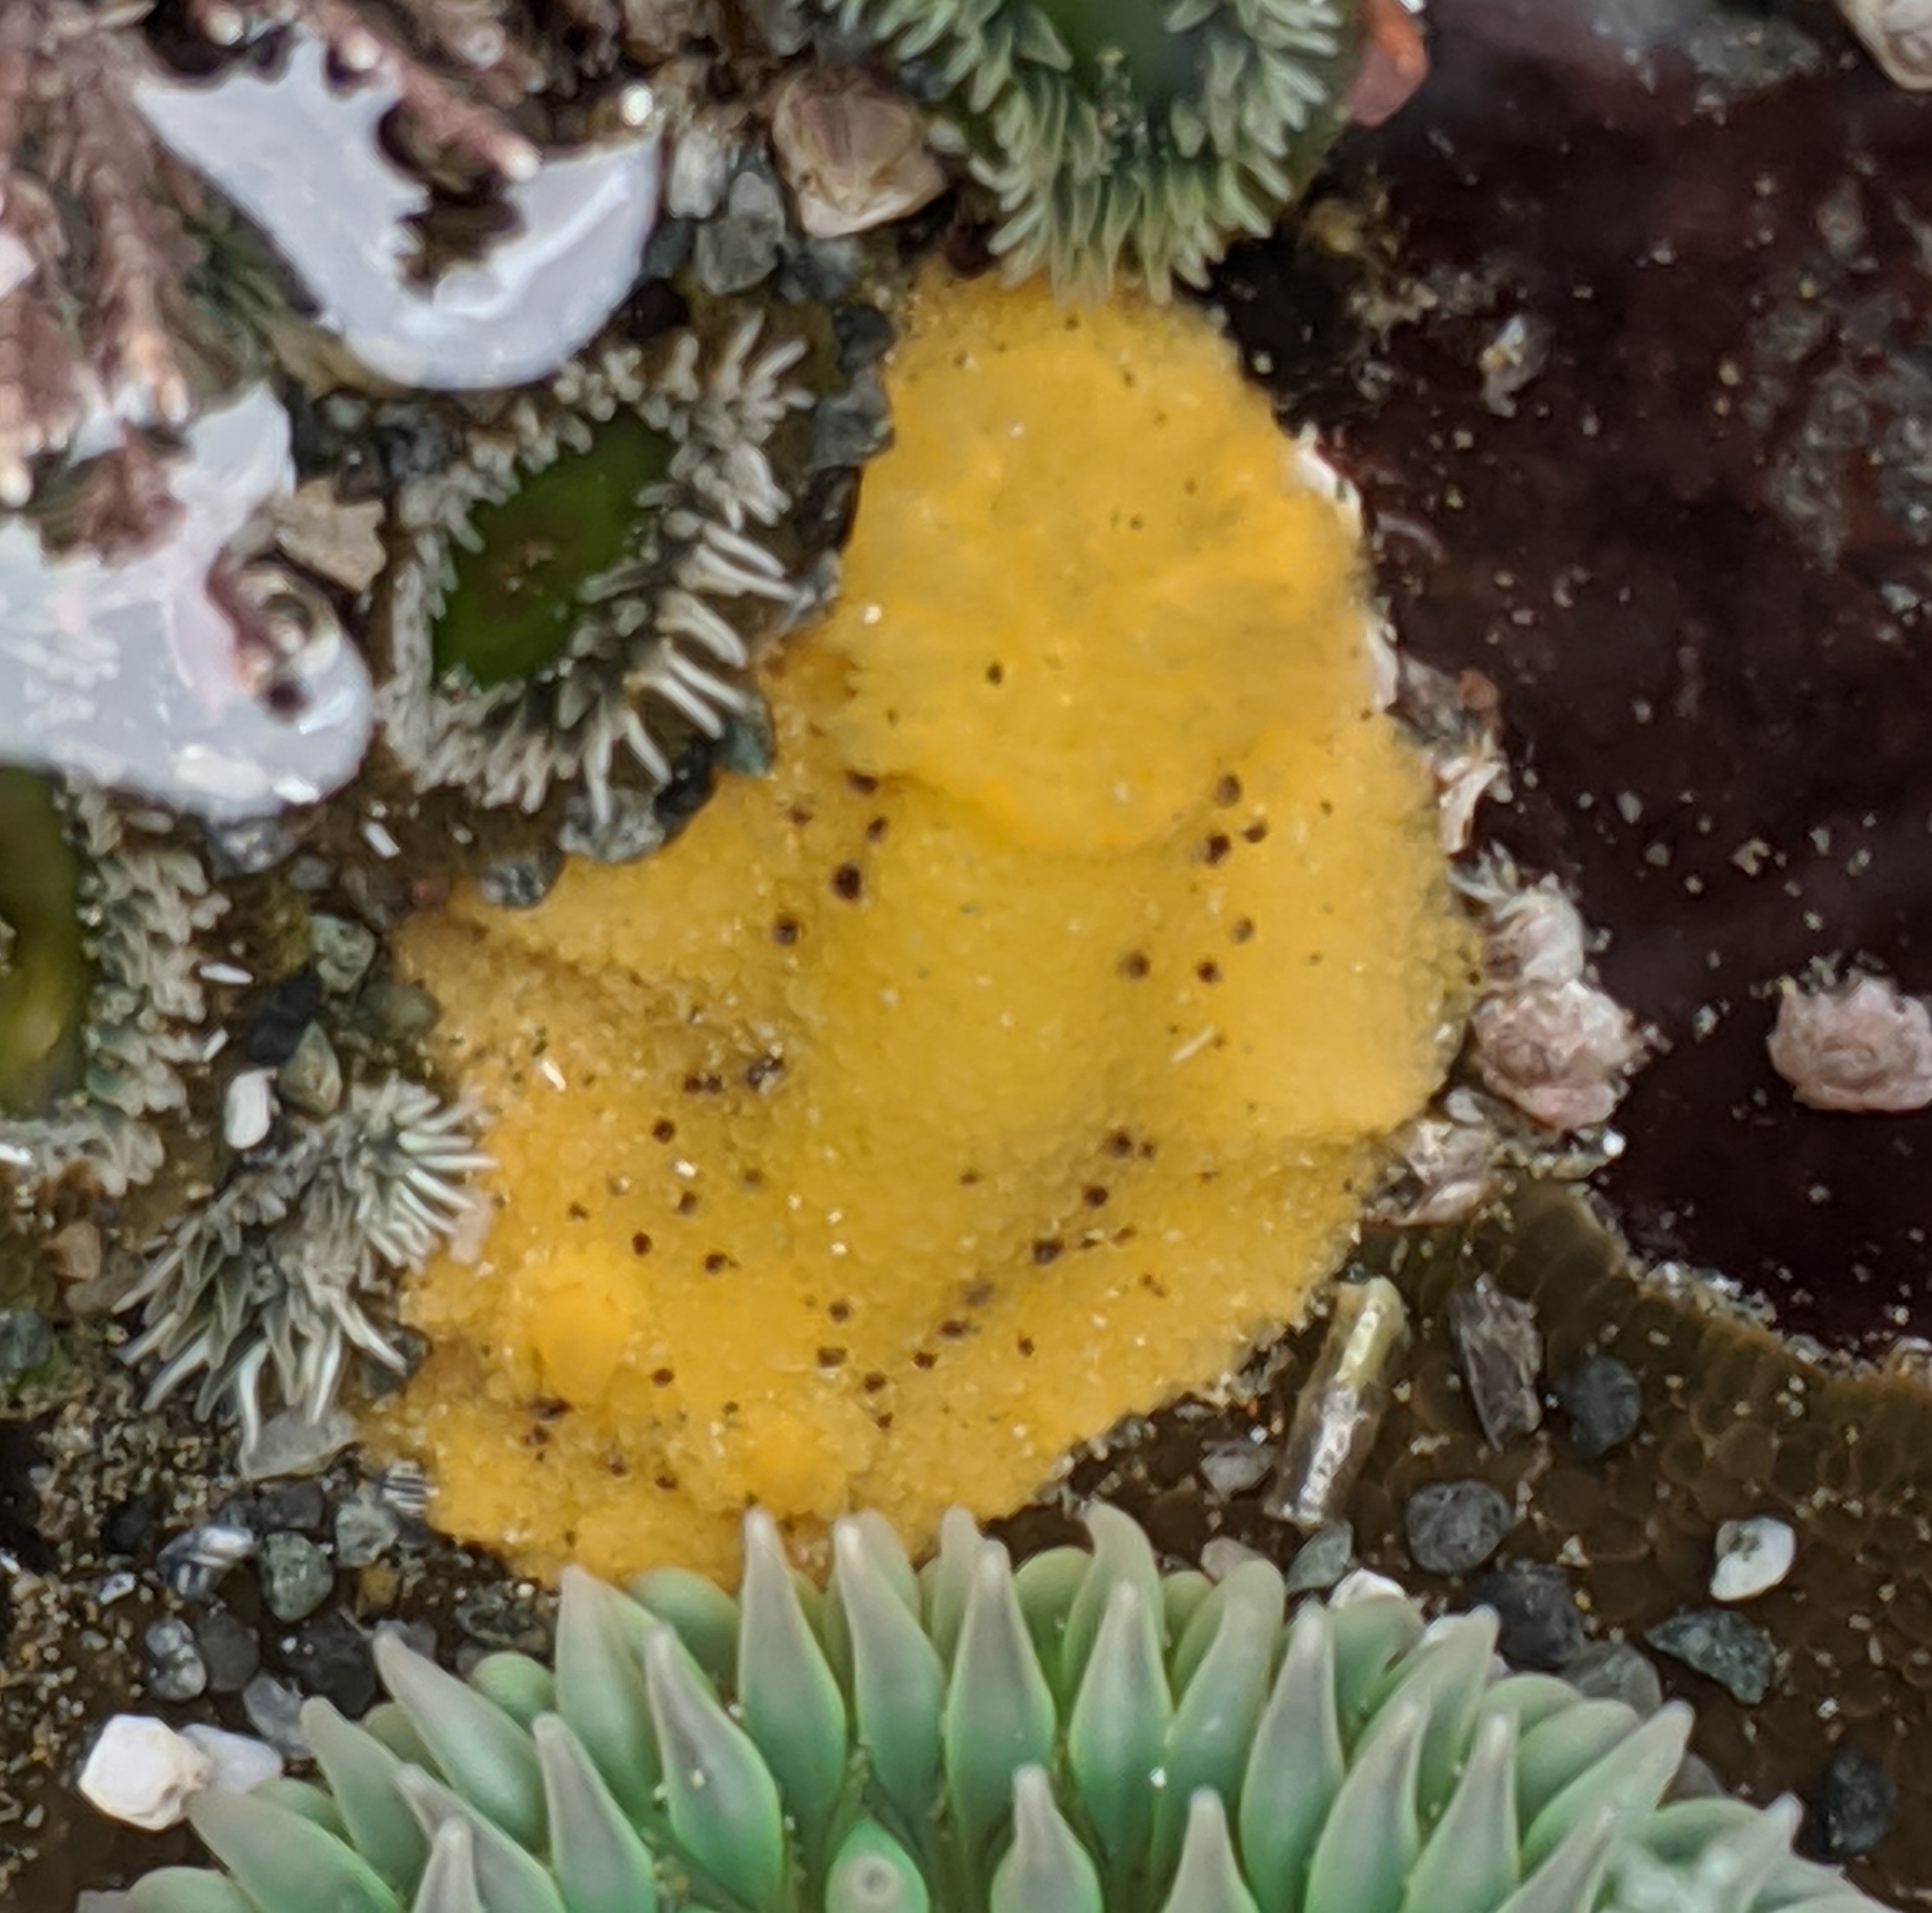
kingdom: Animalia
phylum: Mollusca
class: Gastropoda
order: Nudibranchia
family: Dorididae
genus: Doris
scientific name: Doris montereyensis
